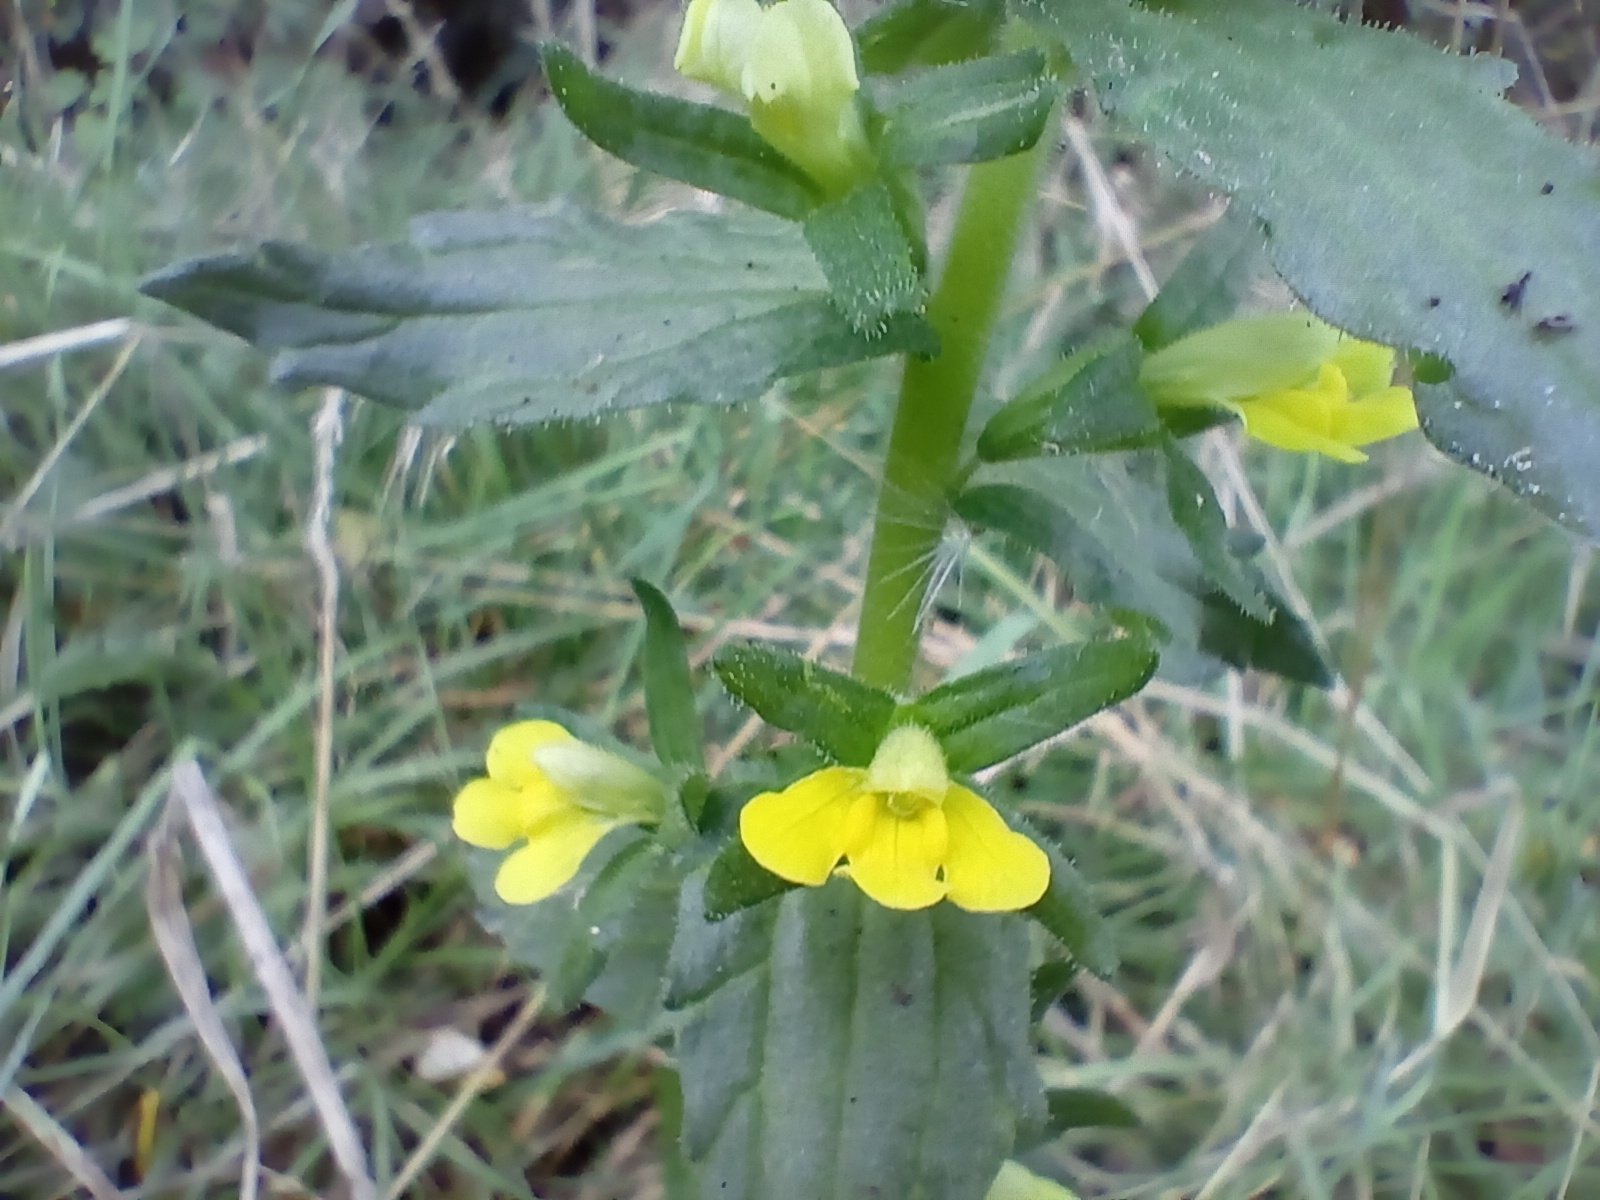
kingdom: Plantae
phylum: Tracheophyta
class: Magnoliopsida
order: Lamiales
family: Orobanchaceae
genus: Bellardia
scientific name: Bellardia viscosa
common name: Sticky parentucellia
